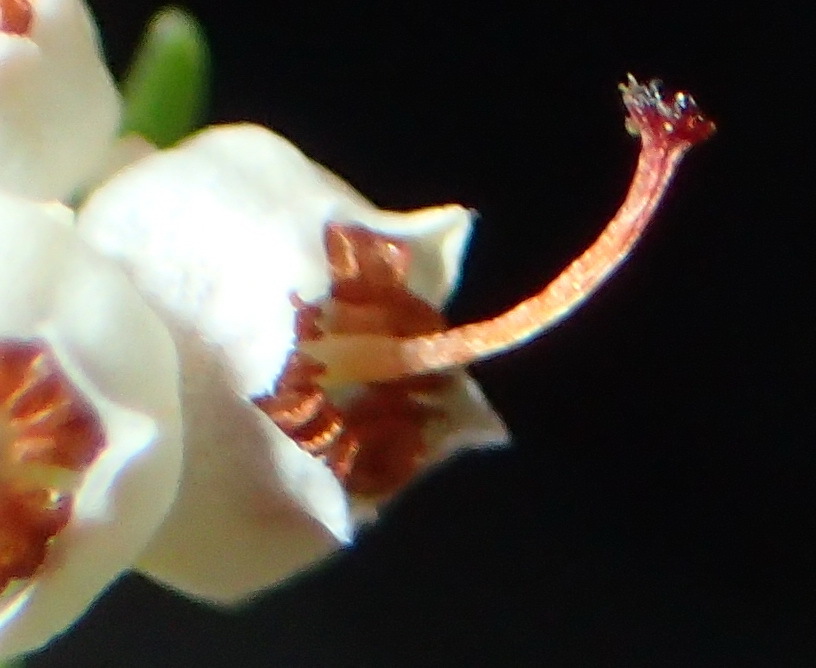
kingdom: Plantae
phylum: Tracheophyta
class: Magnoliopsida
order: Ericales
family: Ericaceae
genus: Erica
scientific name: Erica inconstans
